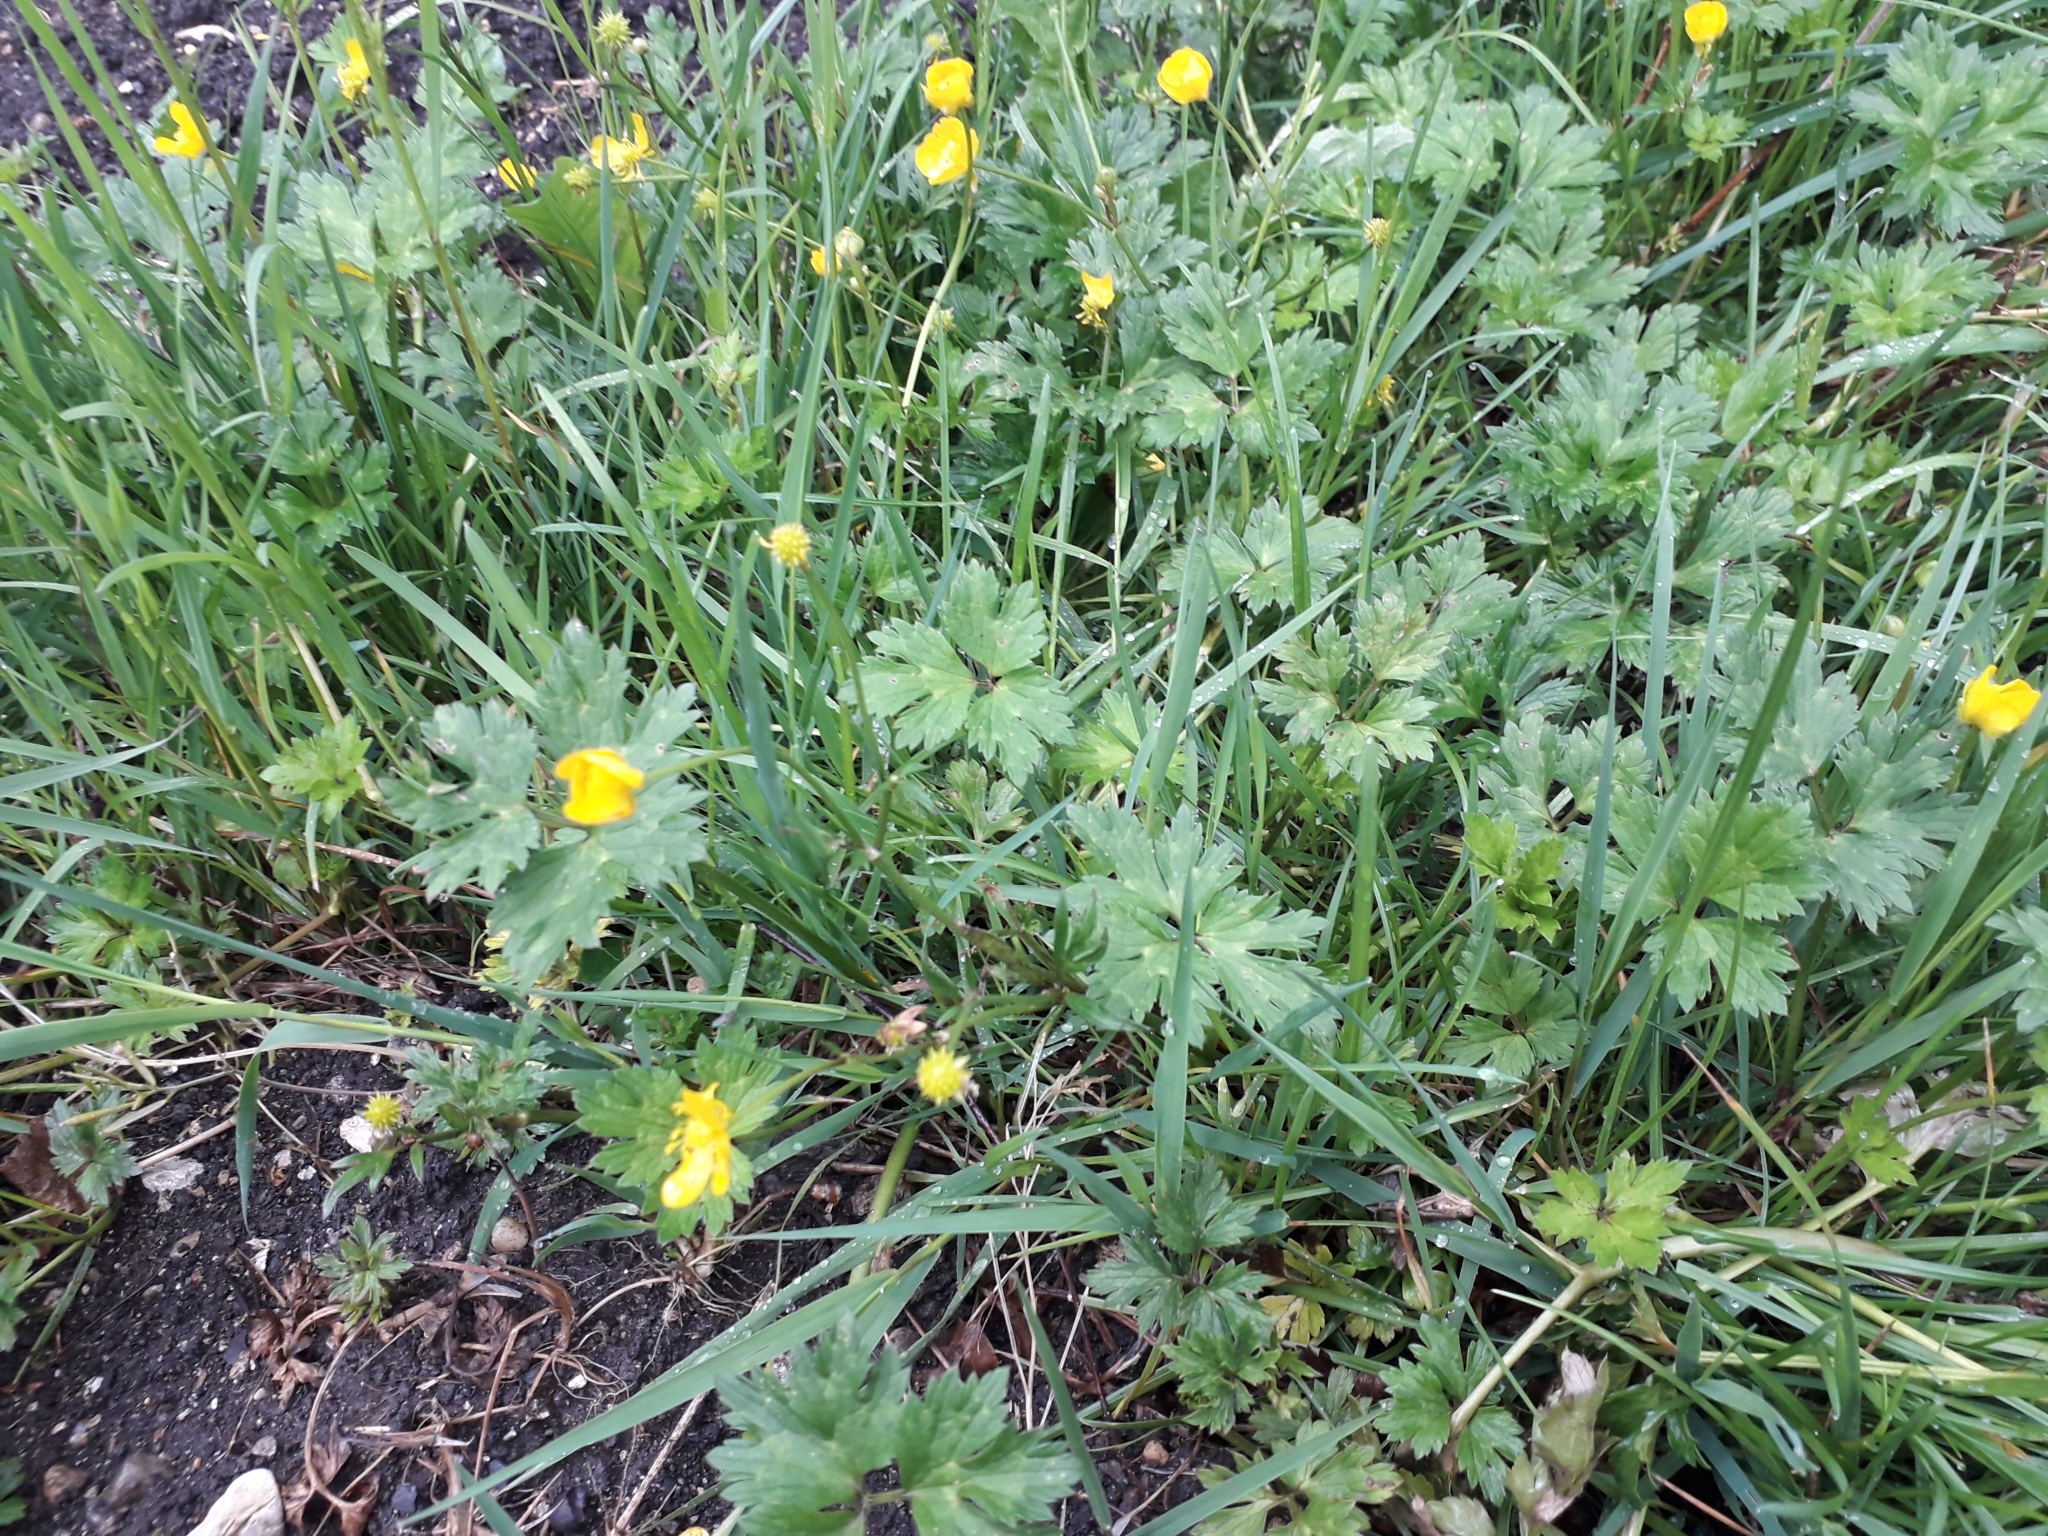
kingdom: Plantae
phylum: Tracheophyta
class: Magnoliopsida
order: Ranunculales
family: Ranunculaceae
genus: Ranunculus
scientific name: Ranunculus repens
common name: Creeping buttercup
